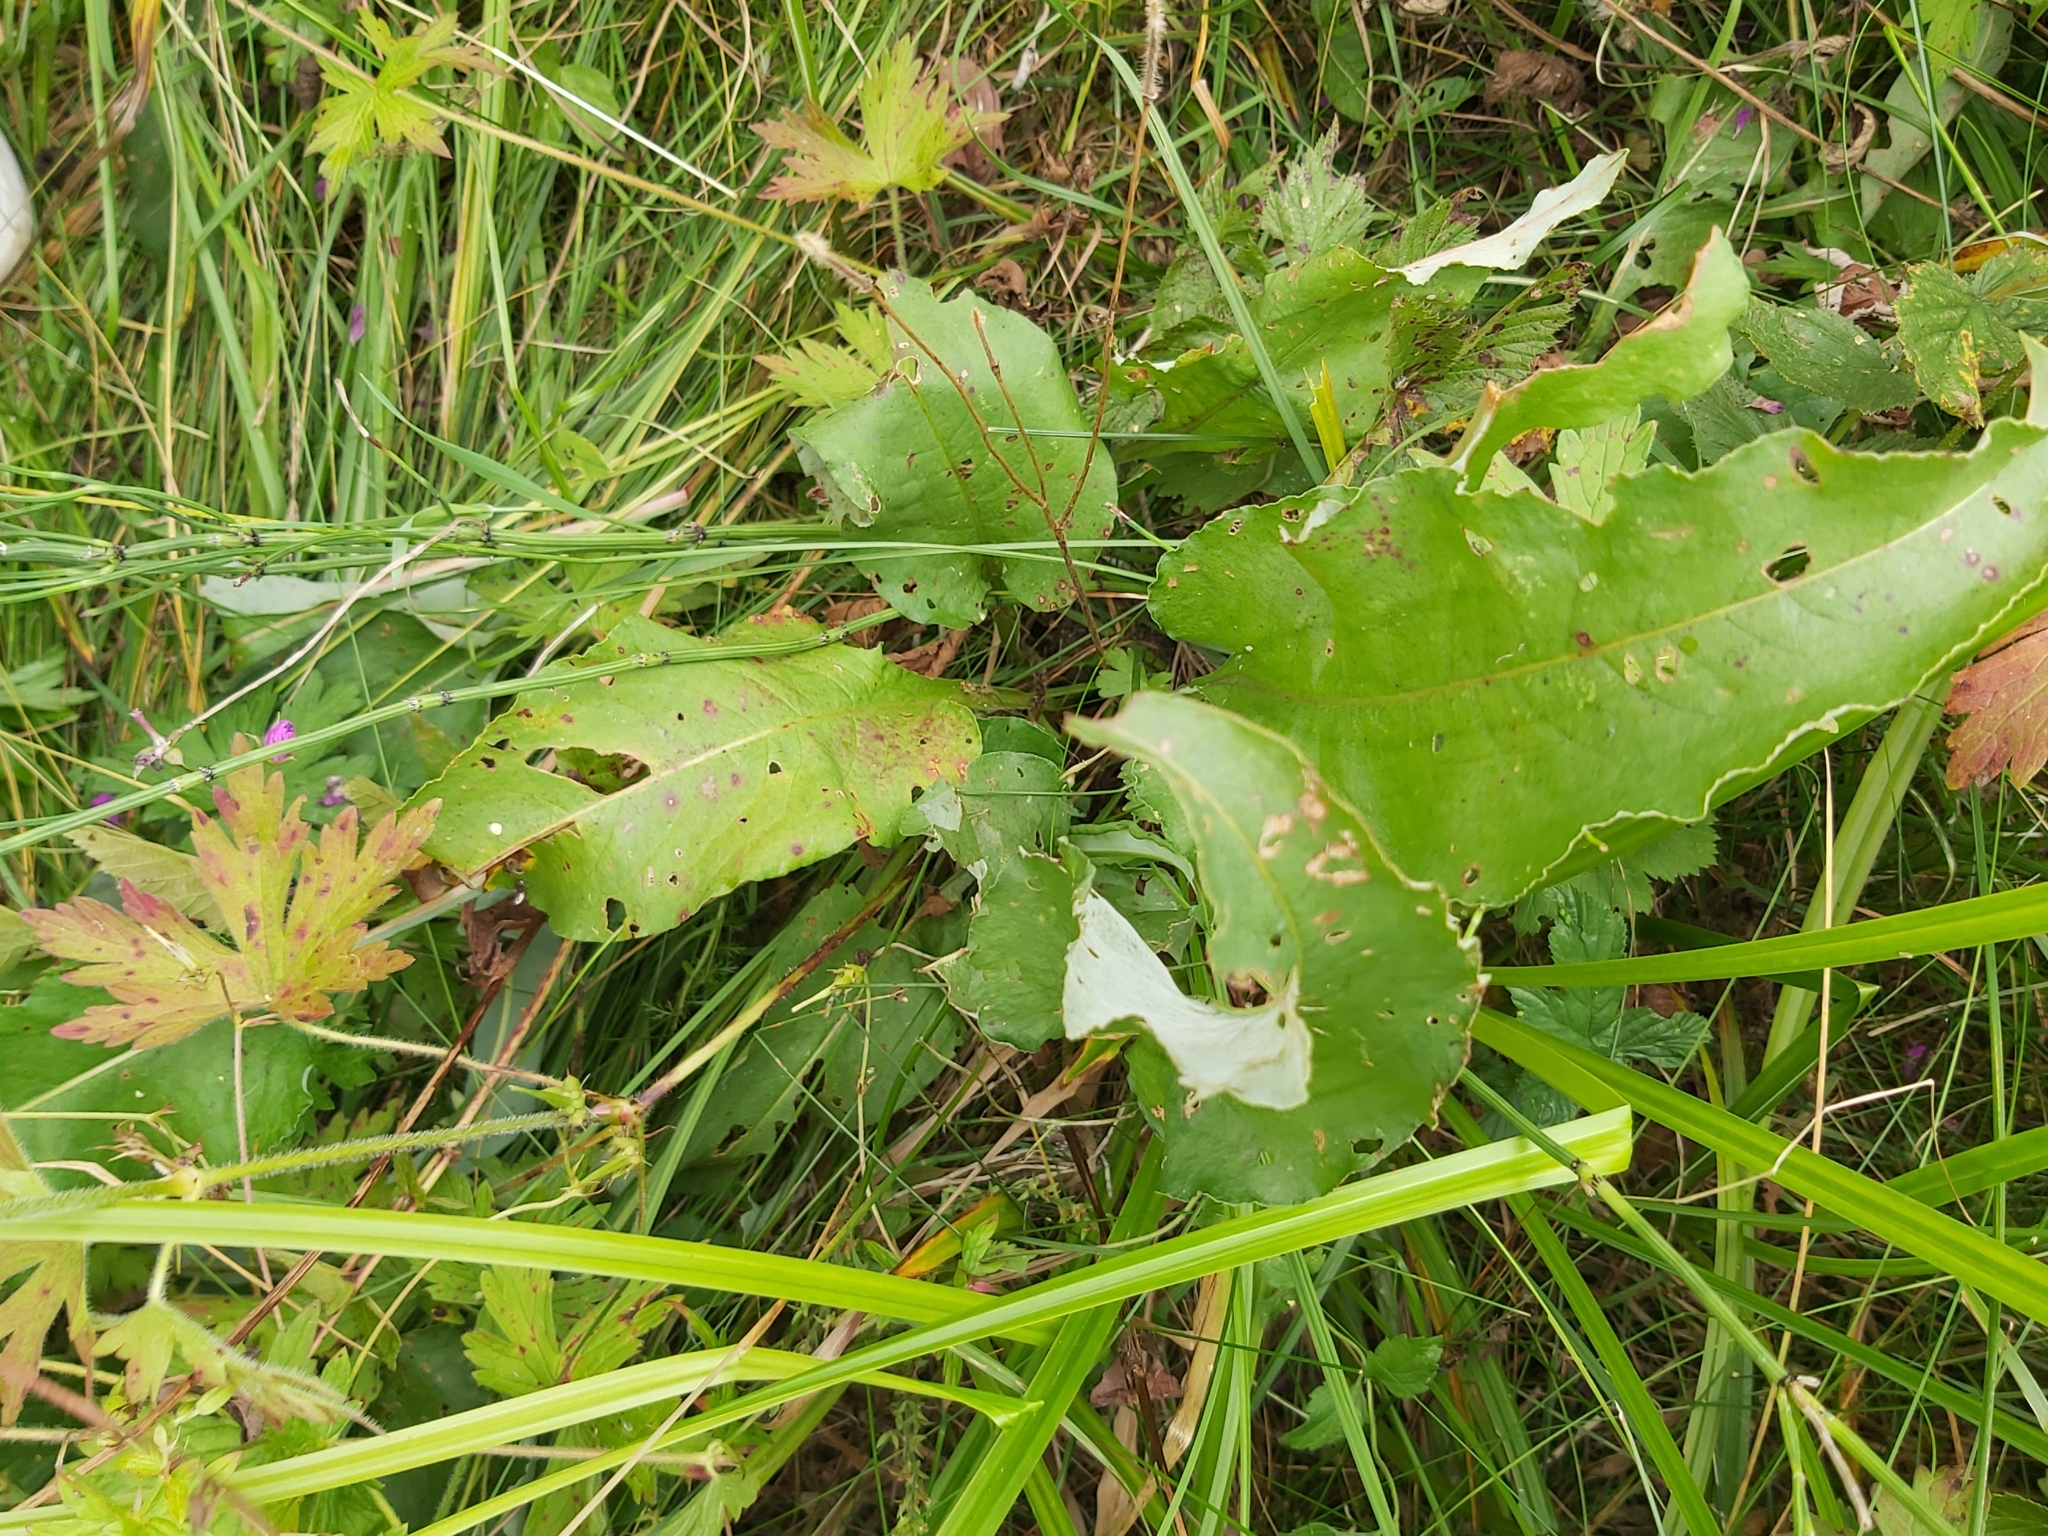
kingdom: Plantae
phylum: Tracheophyta
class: Magnoliopsida
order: Caryophyllales
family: Polygonaceae
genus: Bistorta
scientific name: Bistorta officinalis
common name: Common bistort
